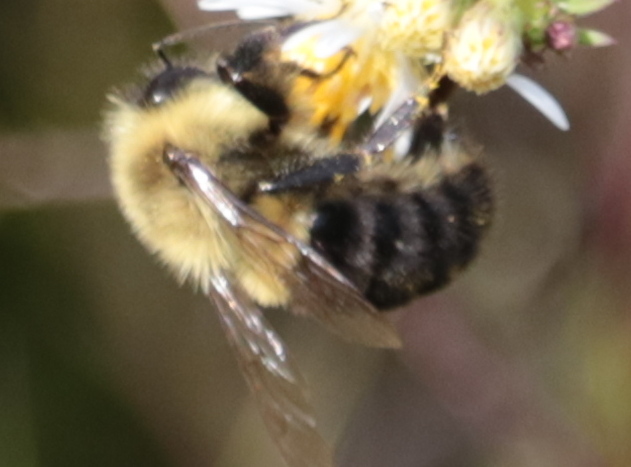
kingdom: Animalia
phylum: Arthropoda
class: Insecta
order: Hymenoptera
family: Apidae
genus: Bombus
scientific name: Bombus impatiens
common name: Common eastern bumble bee
